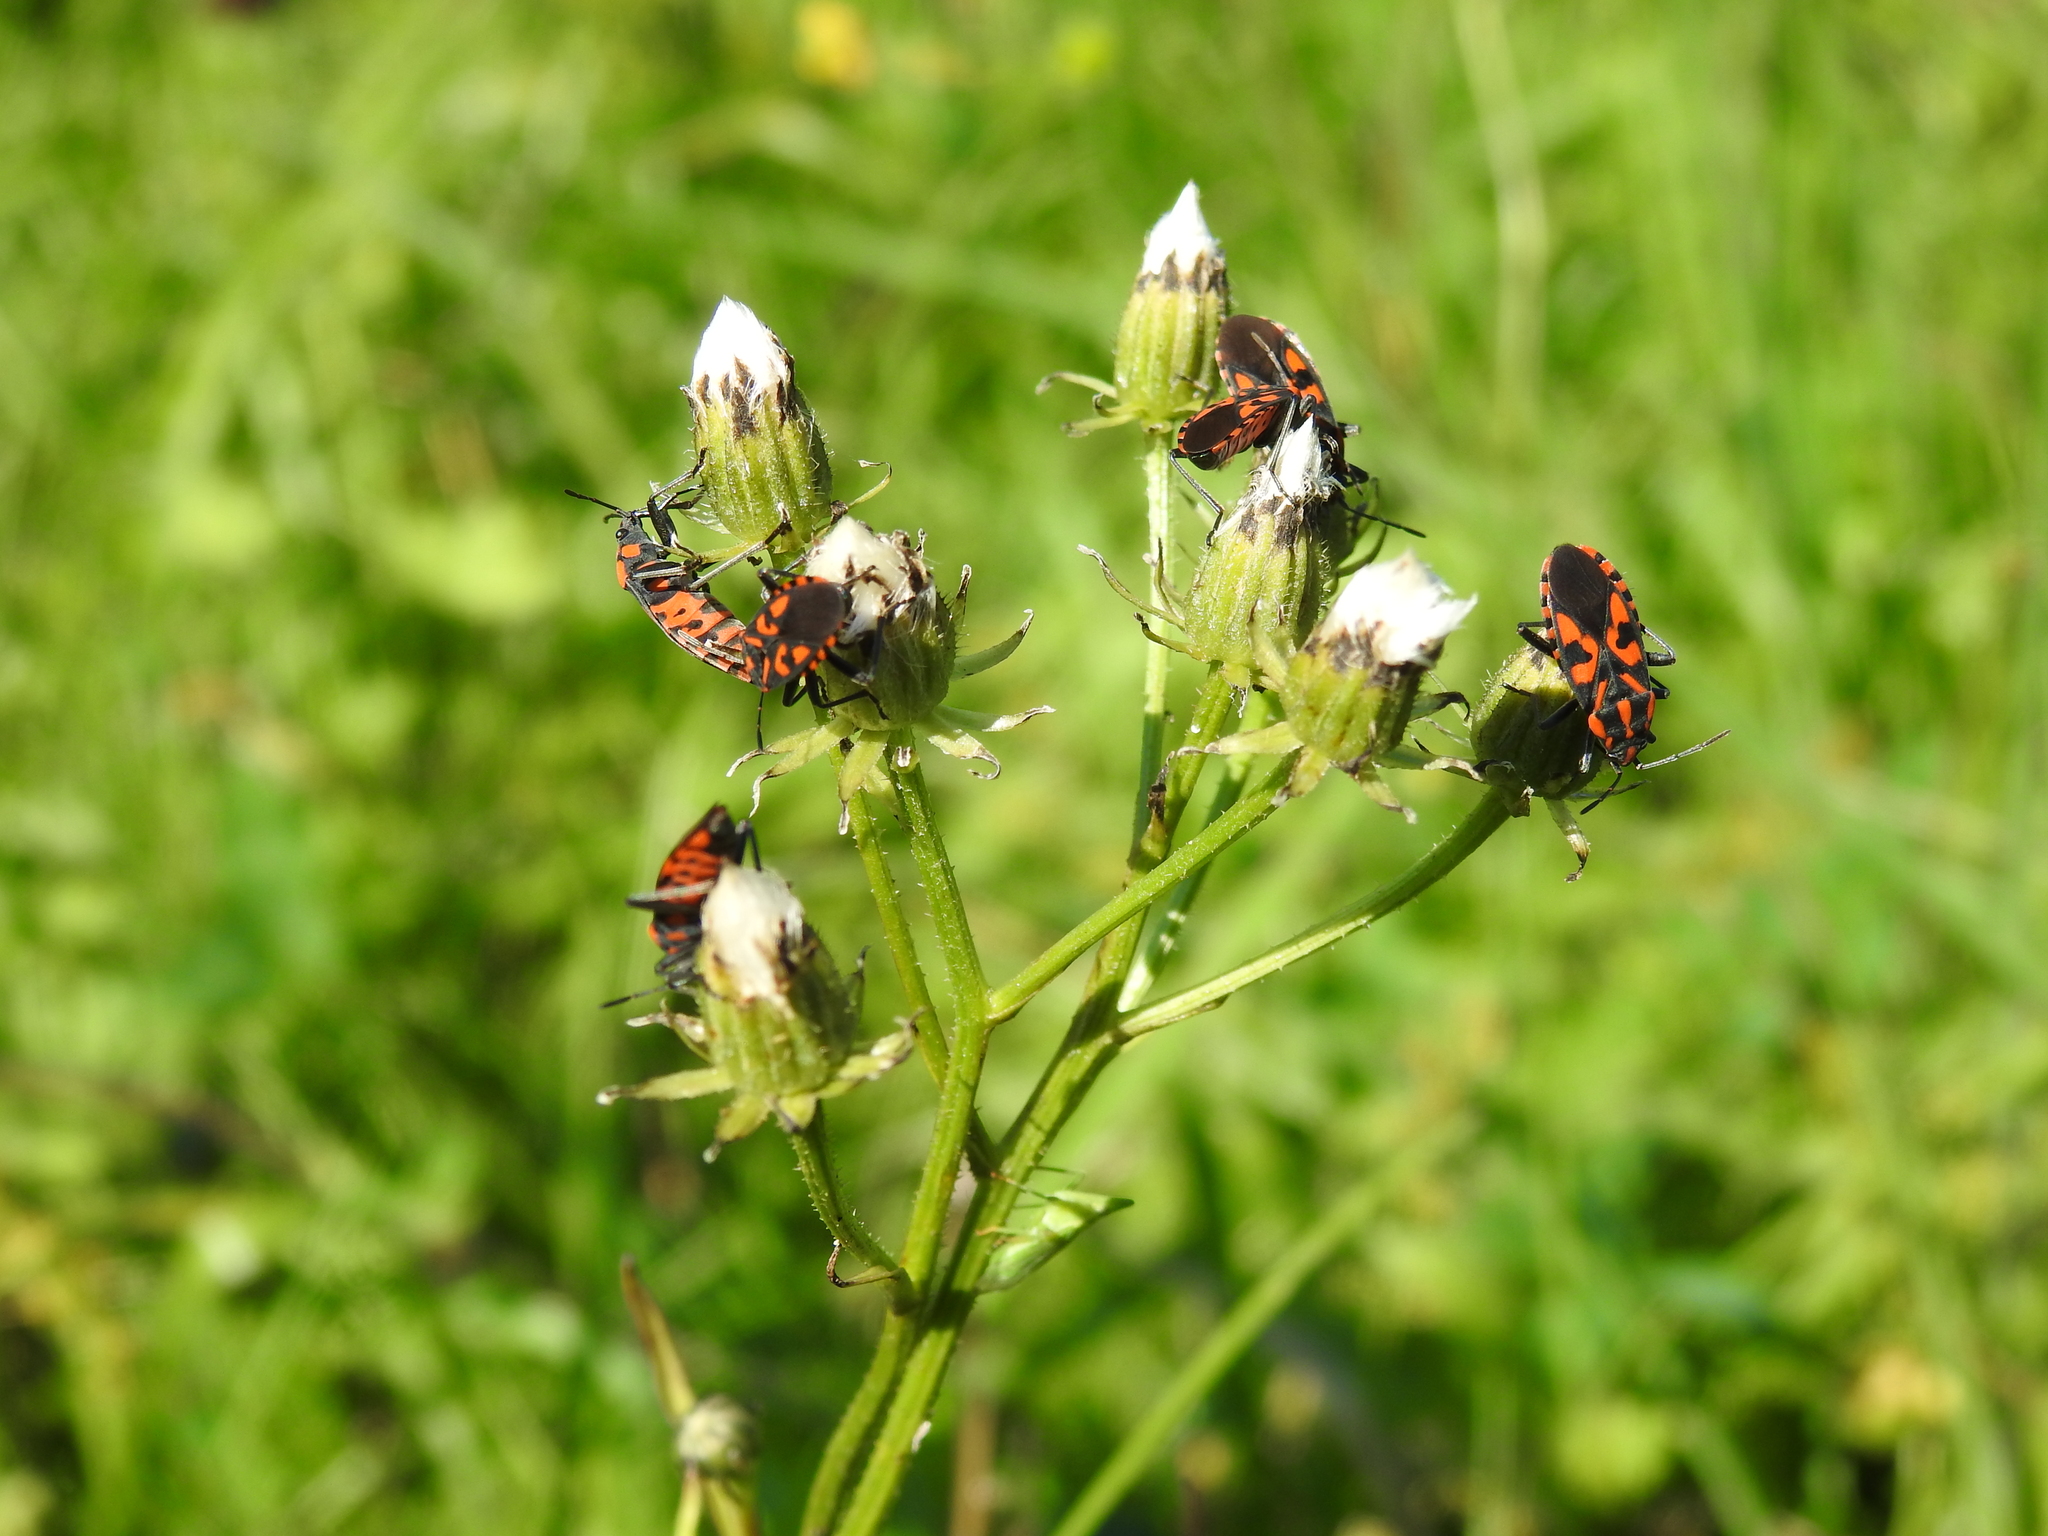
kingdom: Animalia
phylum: Arthropoda
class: Insecta
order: Hemiptera
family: Lygaeidae
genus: Spilostethus
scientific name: Spilostethus saxatilis
